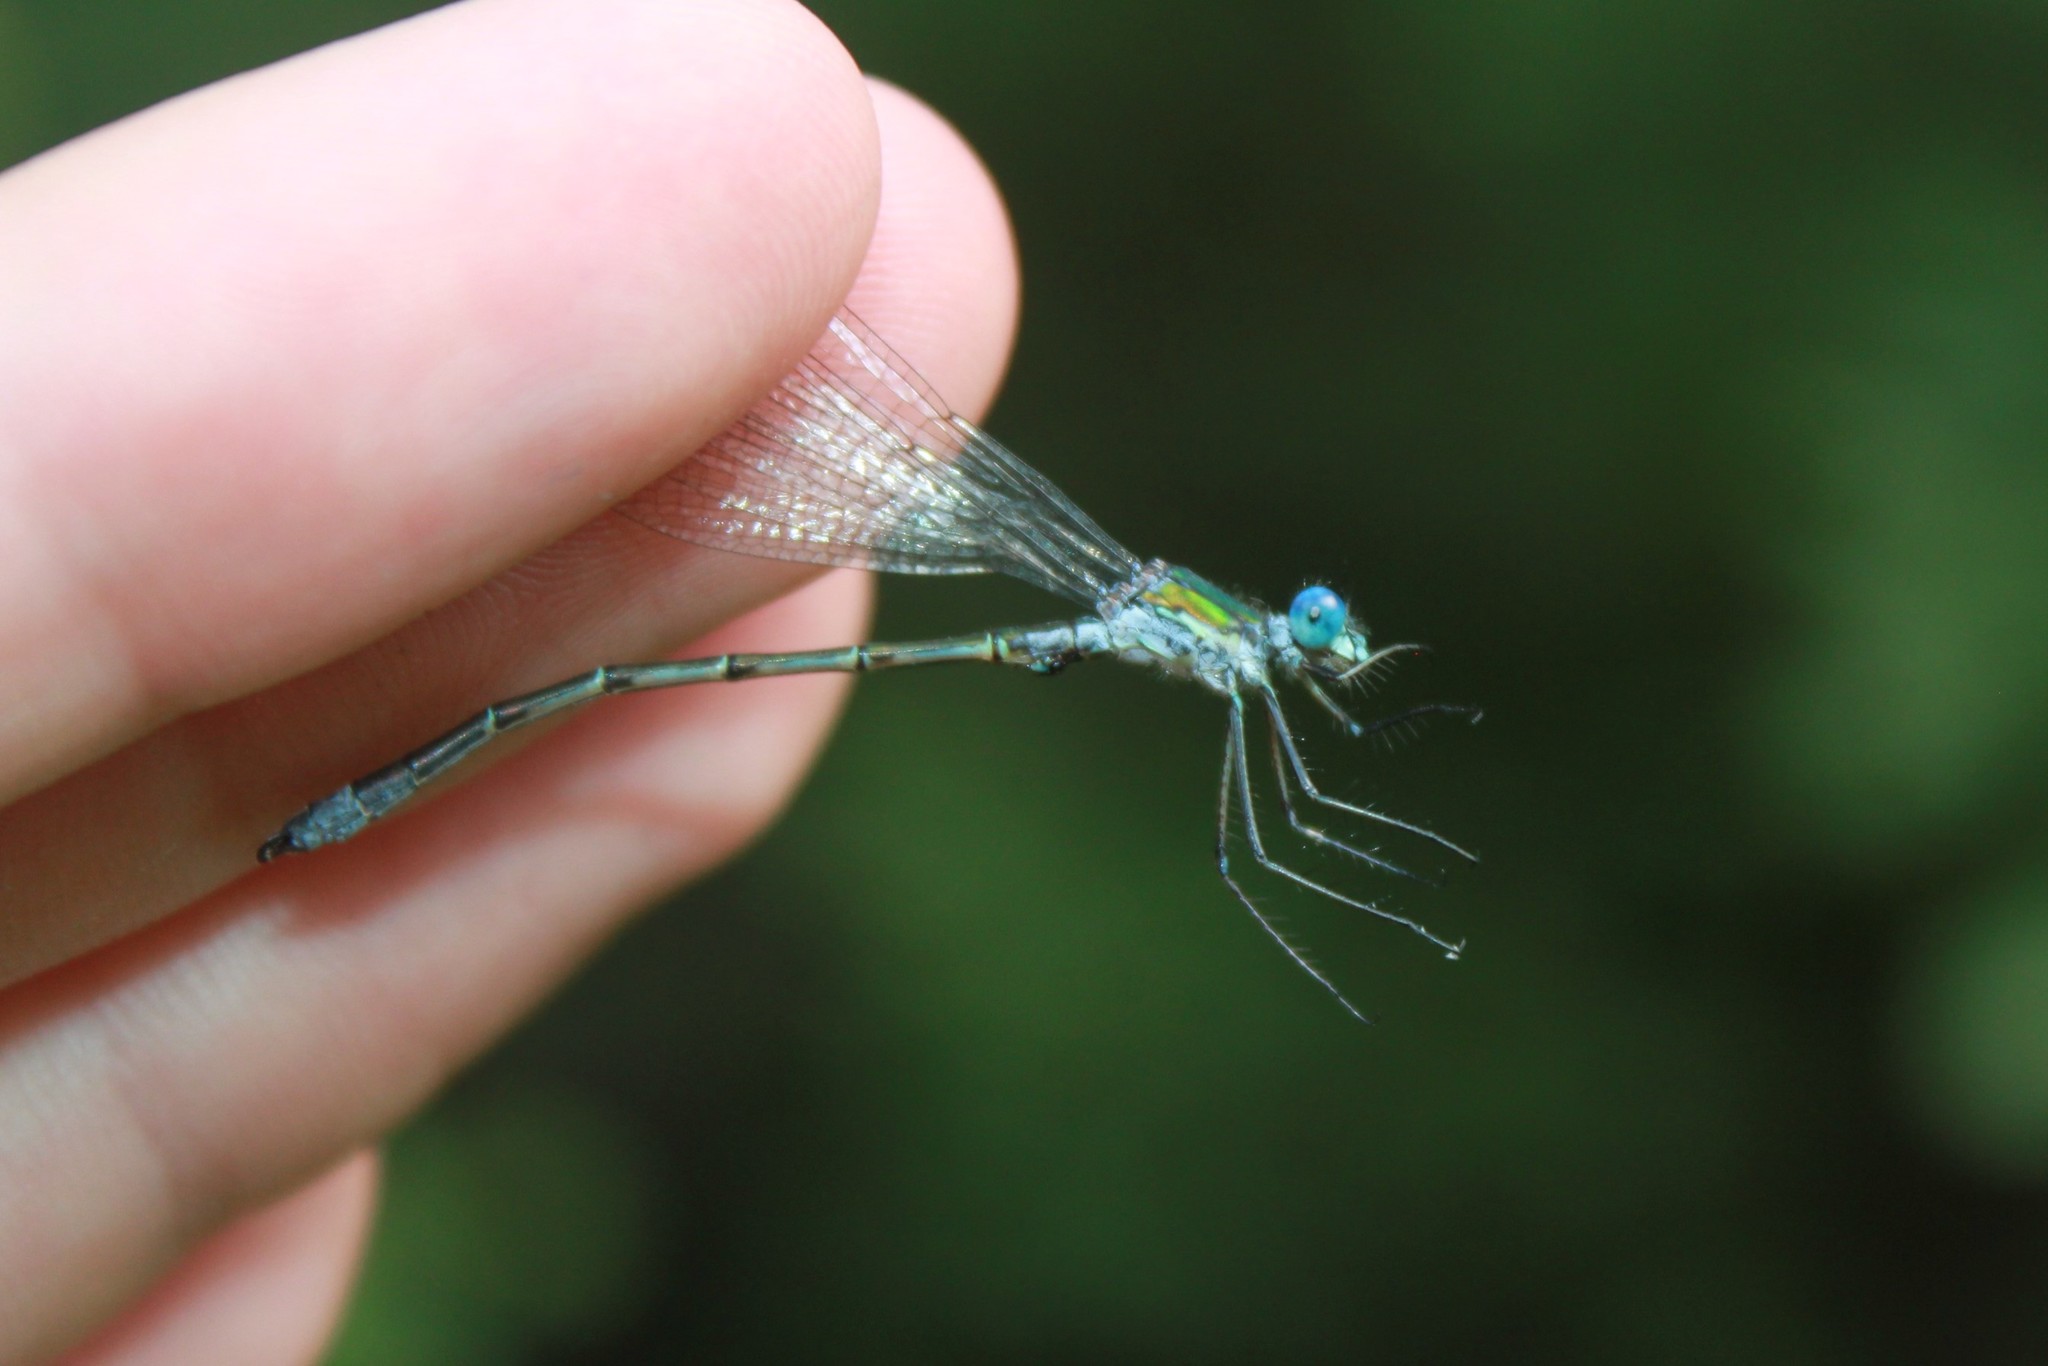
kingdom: Animalia
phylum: Arthropoda
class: Insecta
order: Odonata
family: Lestidae
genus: Lestes
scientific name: Lestes dryas
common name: Scarce emerald damselfly
